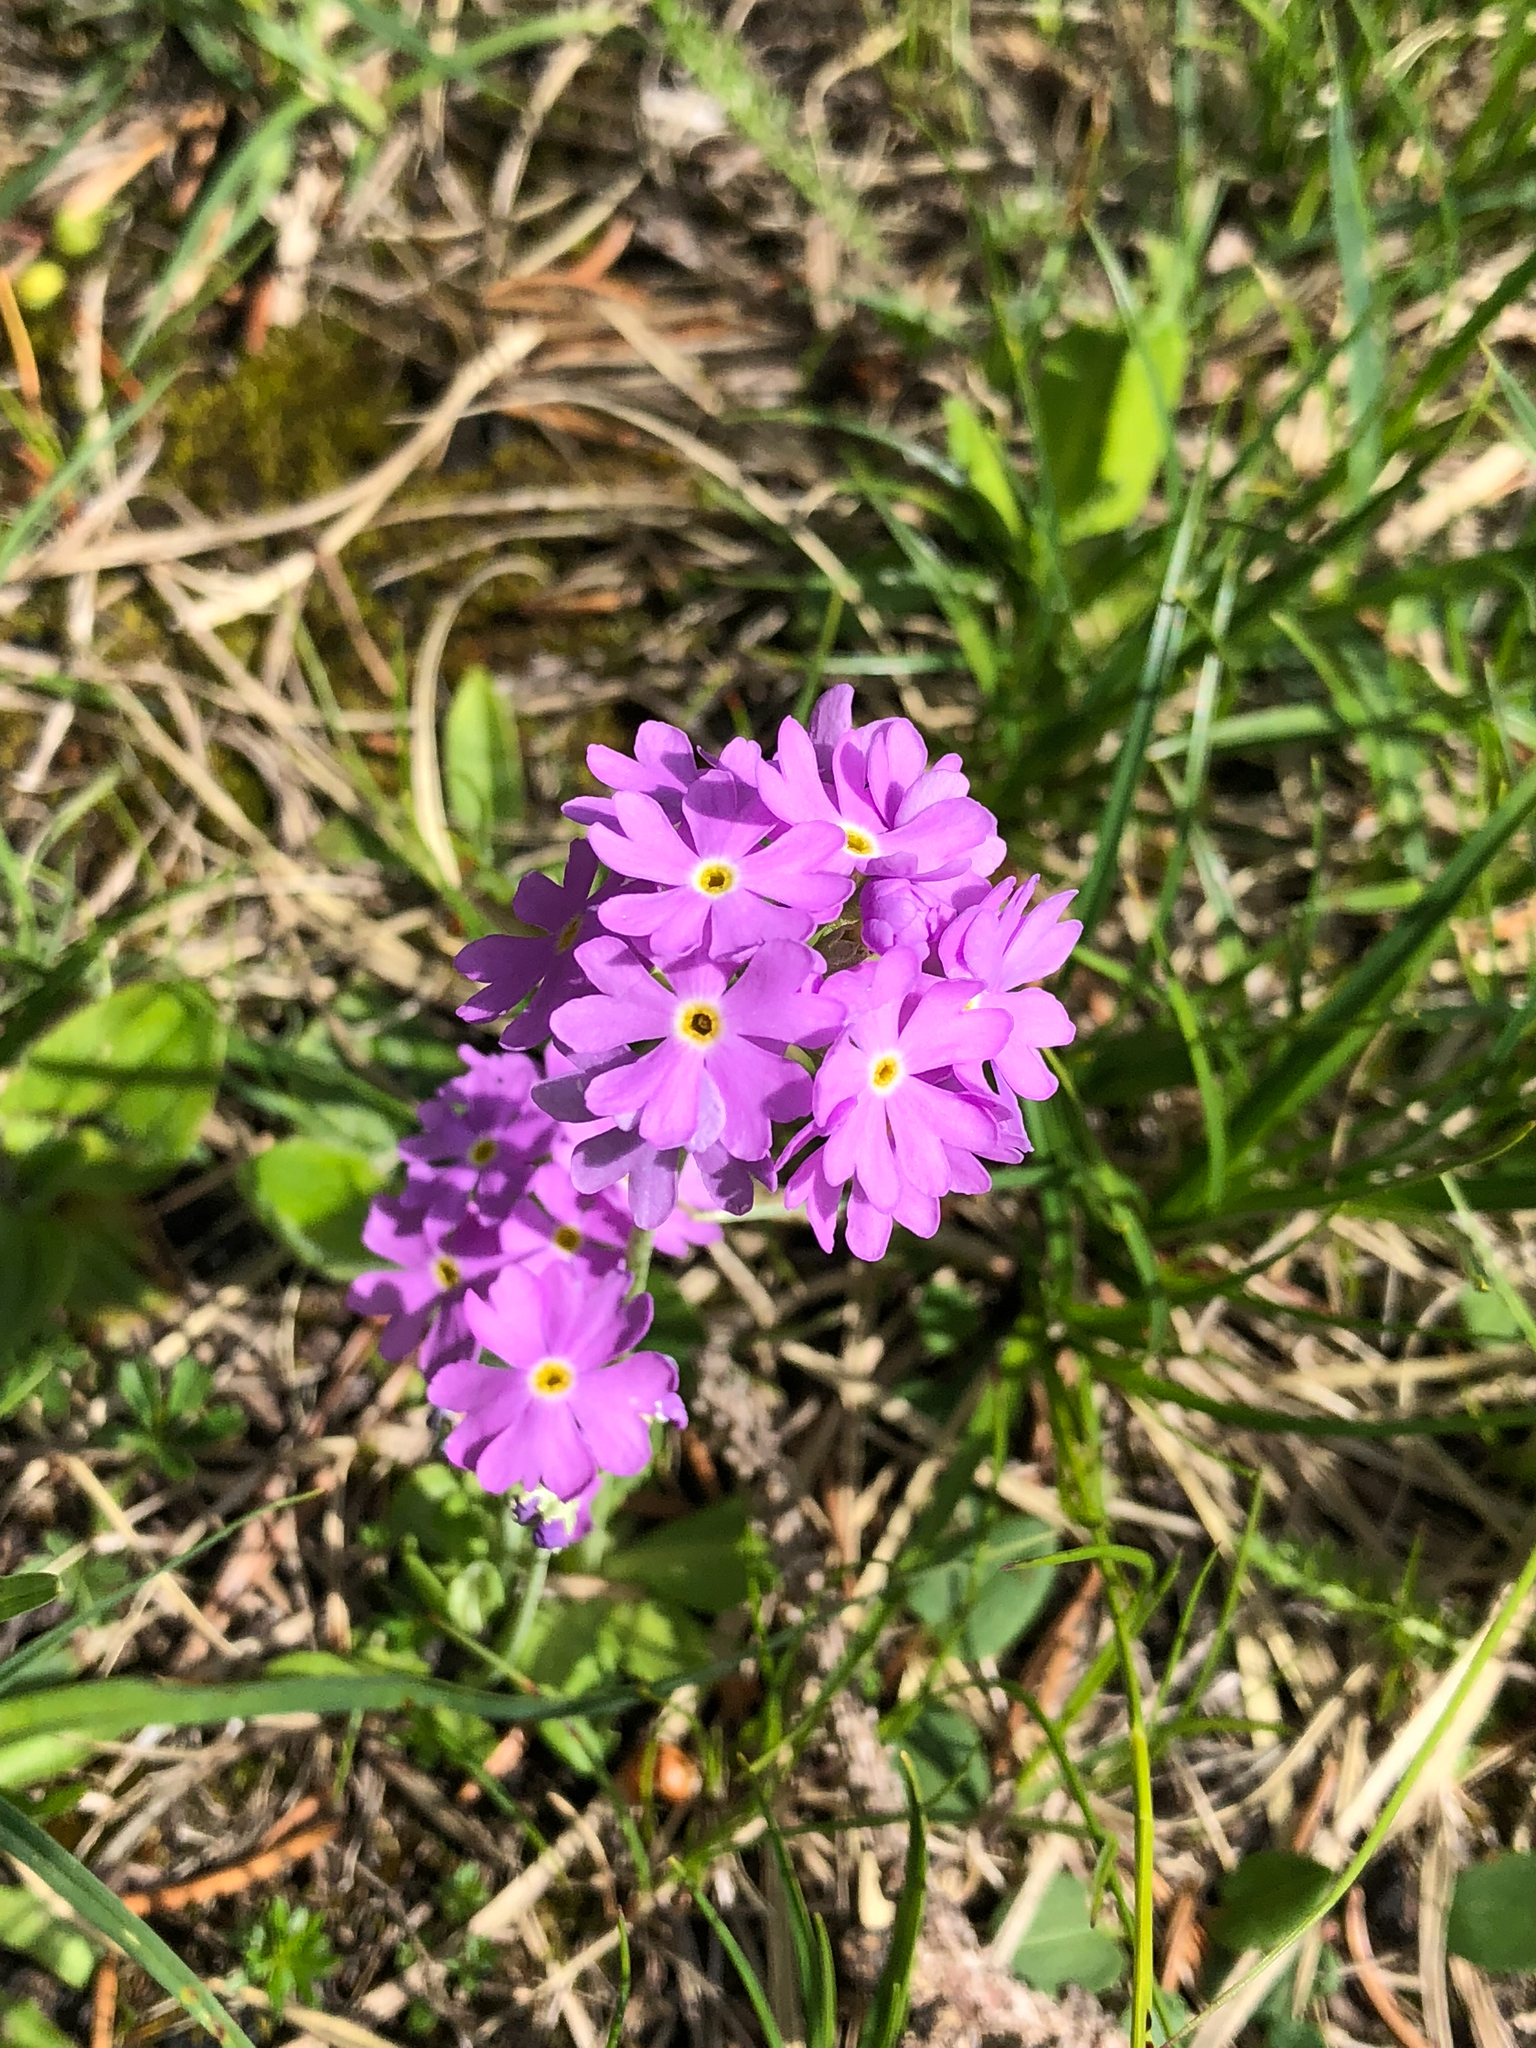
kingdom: Plantae
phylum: Tracheophyta
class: Magnoliopsida
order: Ericales
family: Primulaceae
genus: Primula
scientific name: Primula farinosa
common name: Bird's-eye primrose
